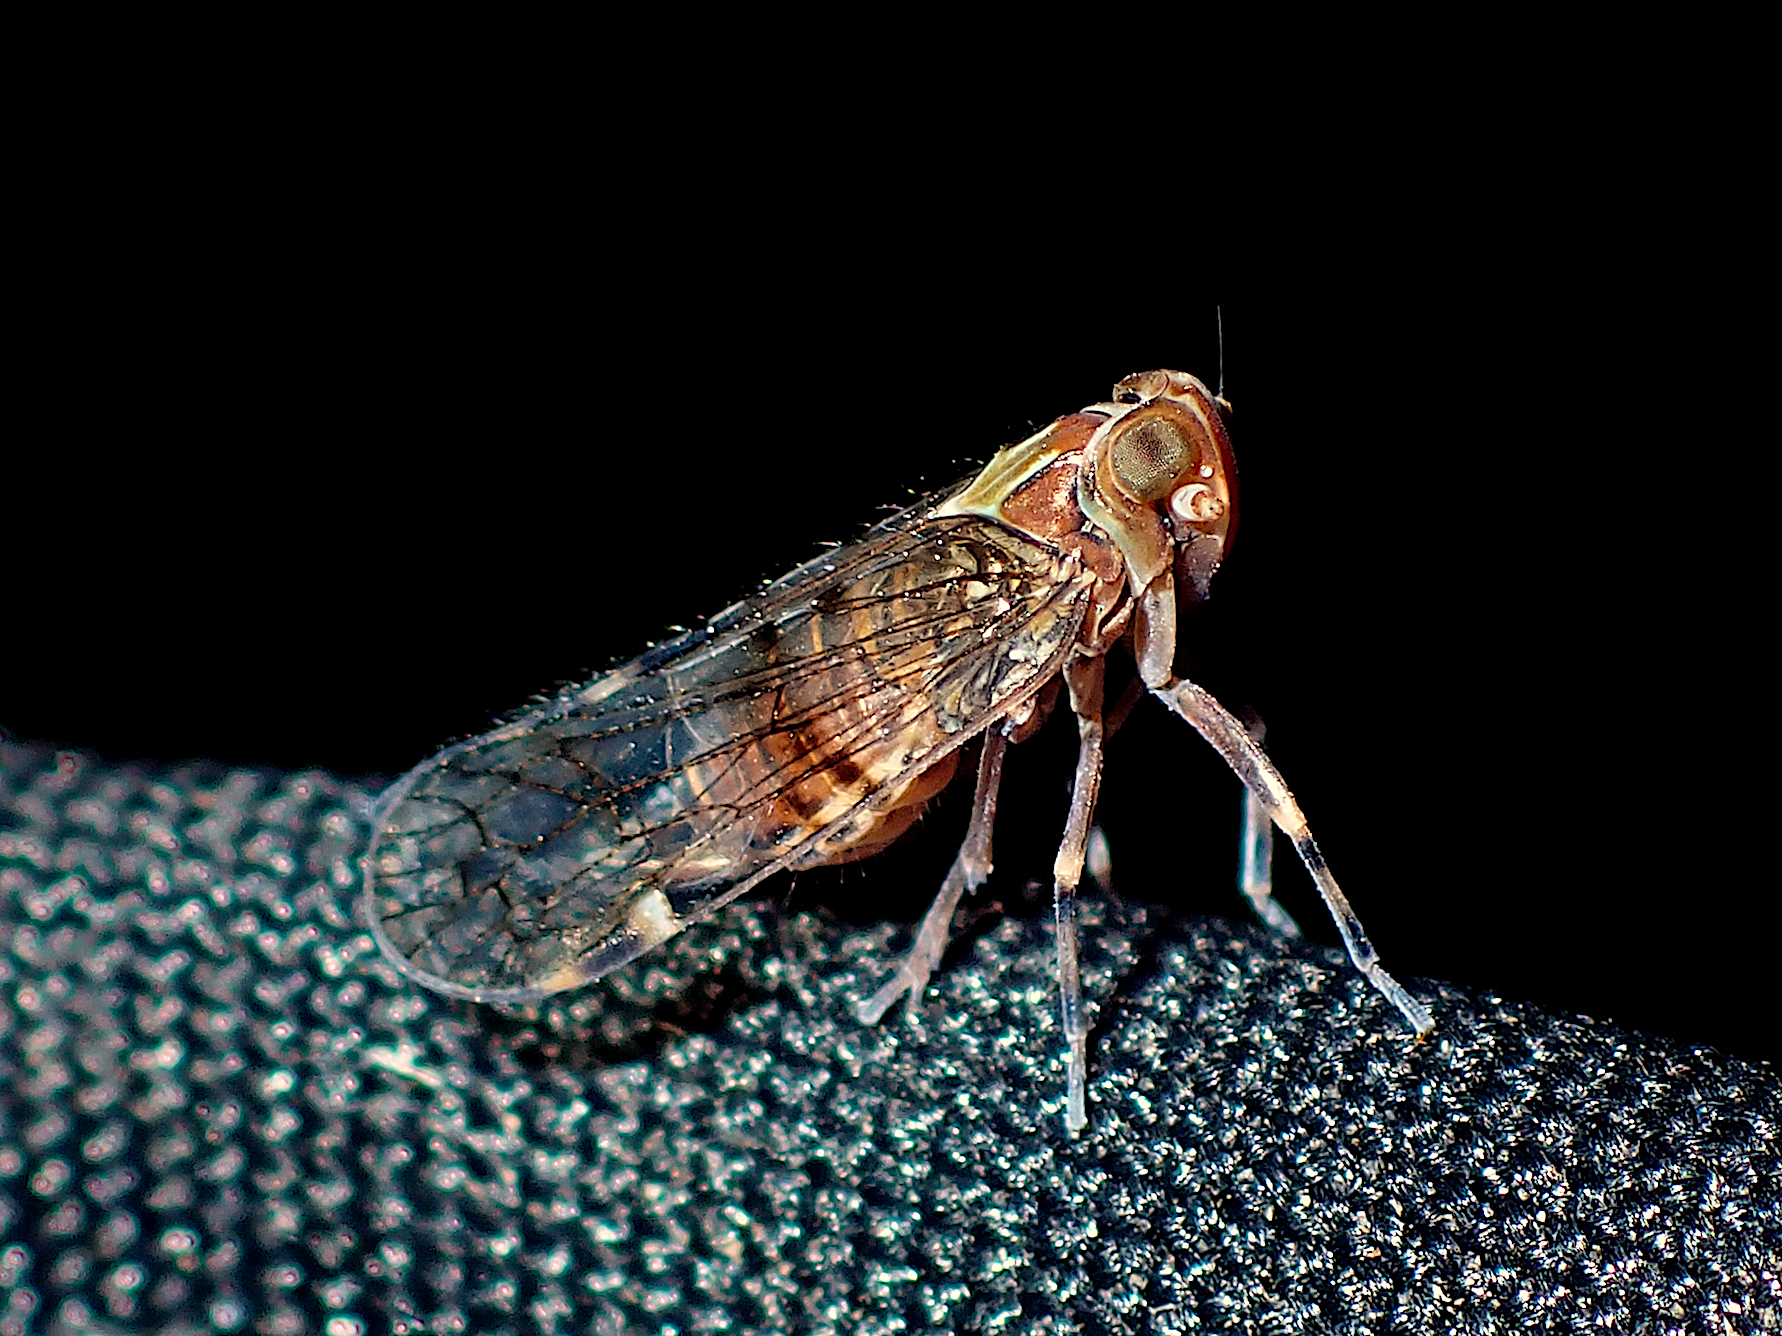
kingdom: Animalia
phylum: Arthropoda
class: Insecta
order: Hemiptera
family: Cixiidae
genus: Koroana
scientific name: Koroana rufifrons
